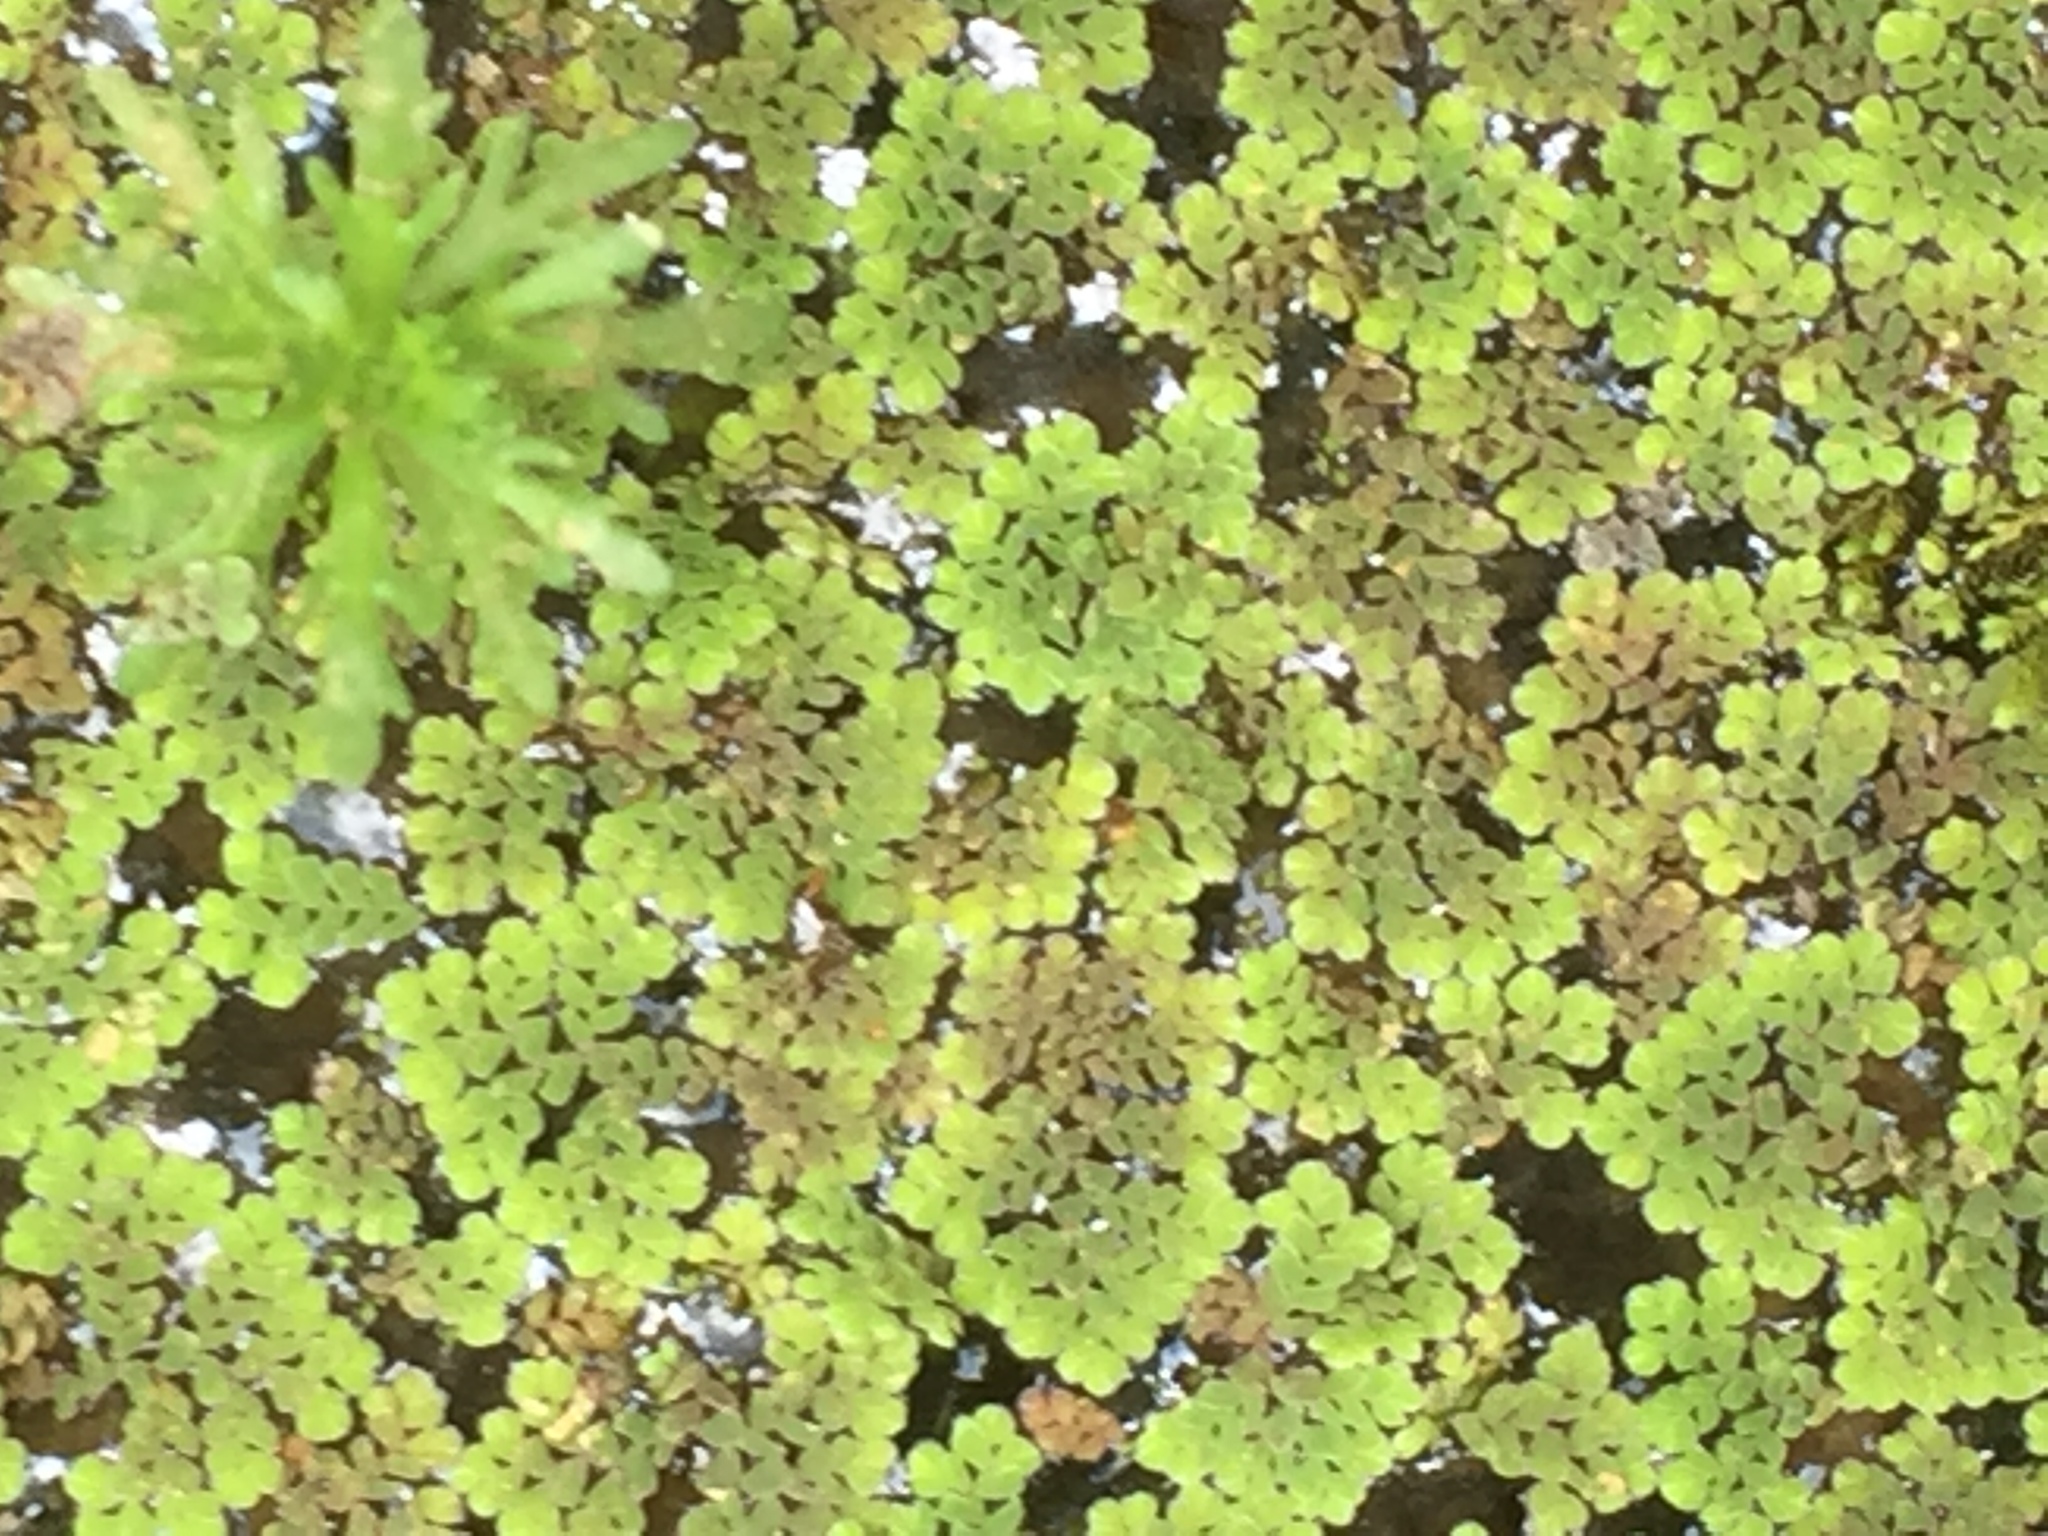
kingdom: Plantae
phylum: Tracheophyta
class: Polypodiopsida
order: Salviniales
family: Salviniaceae
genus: Azolla
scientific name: Azolla pinnata
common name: Ferny azolla
